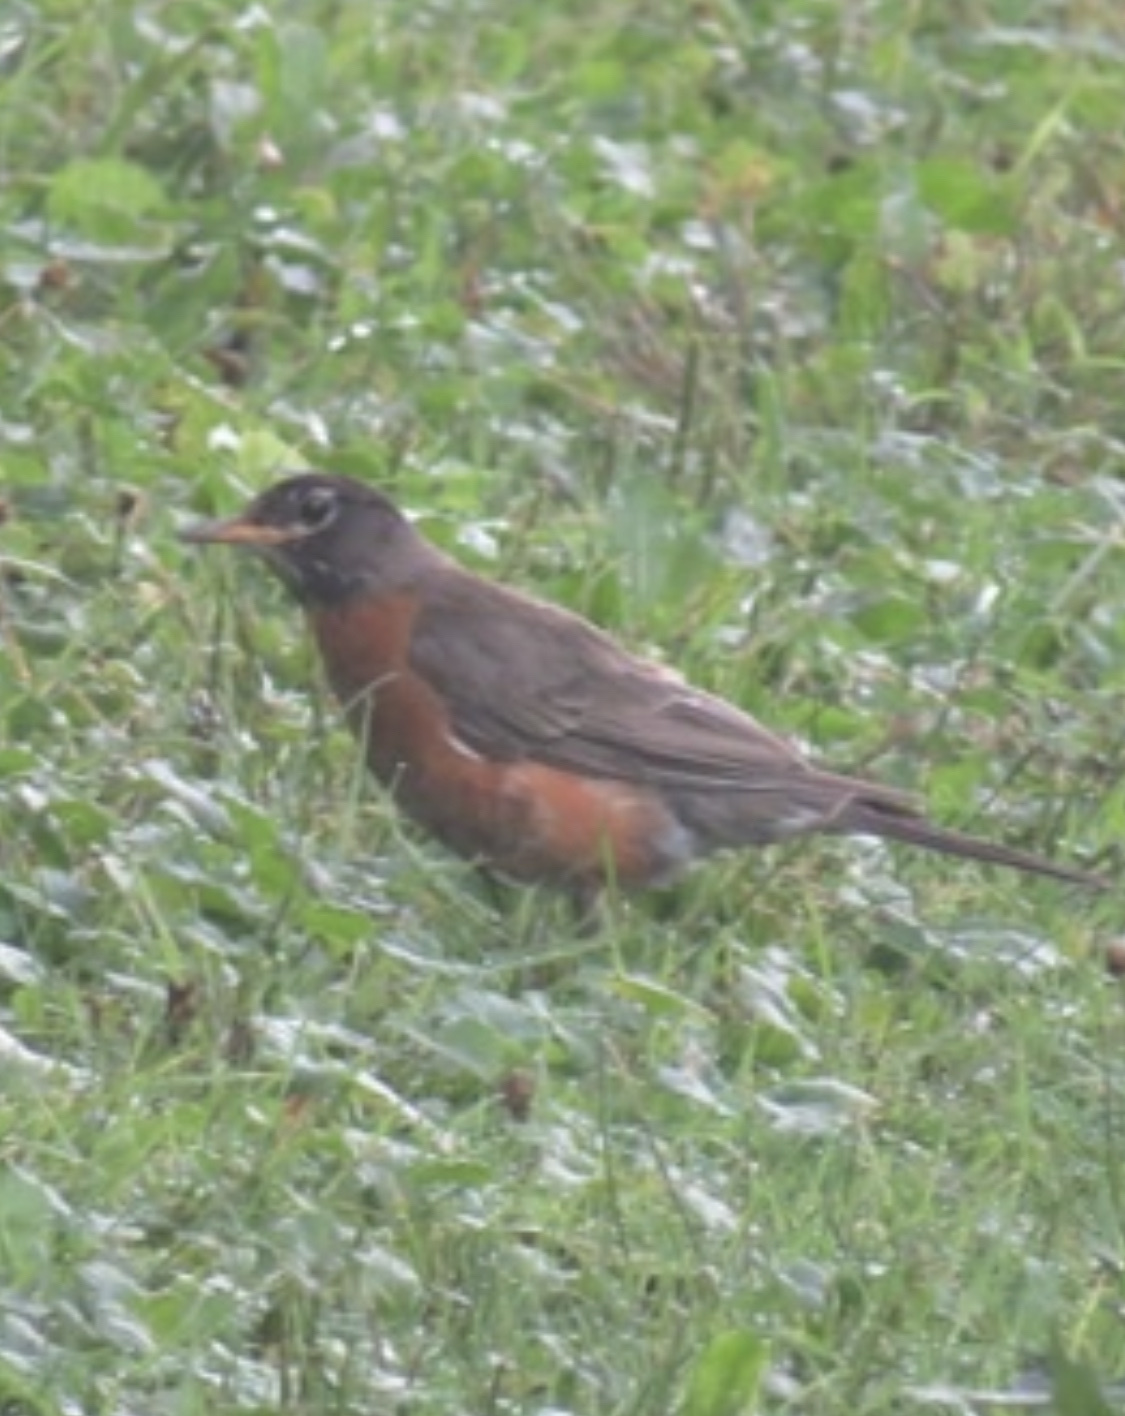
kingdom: Animalia
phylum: Chordata
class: Aves
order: Passeriformes
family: Turdidae
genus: Turdus
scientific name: Turdus migratorius
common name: American robin
